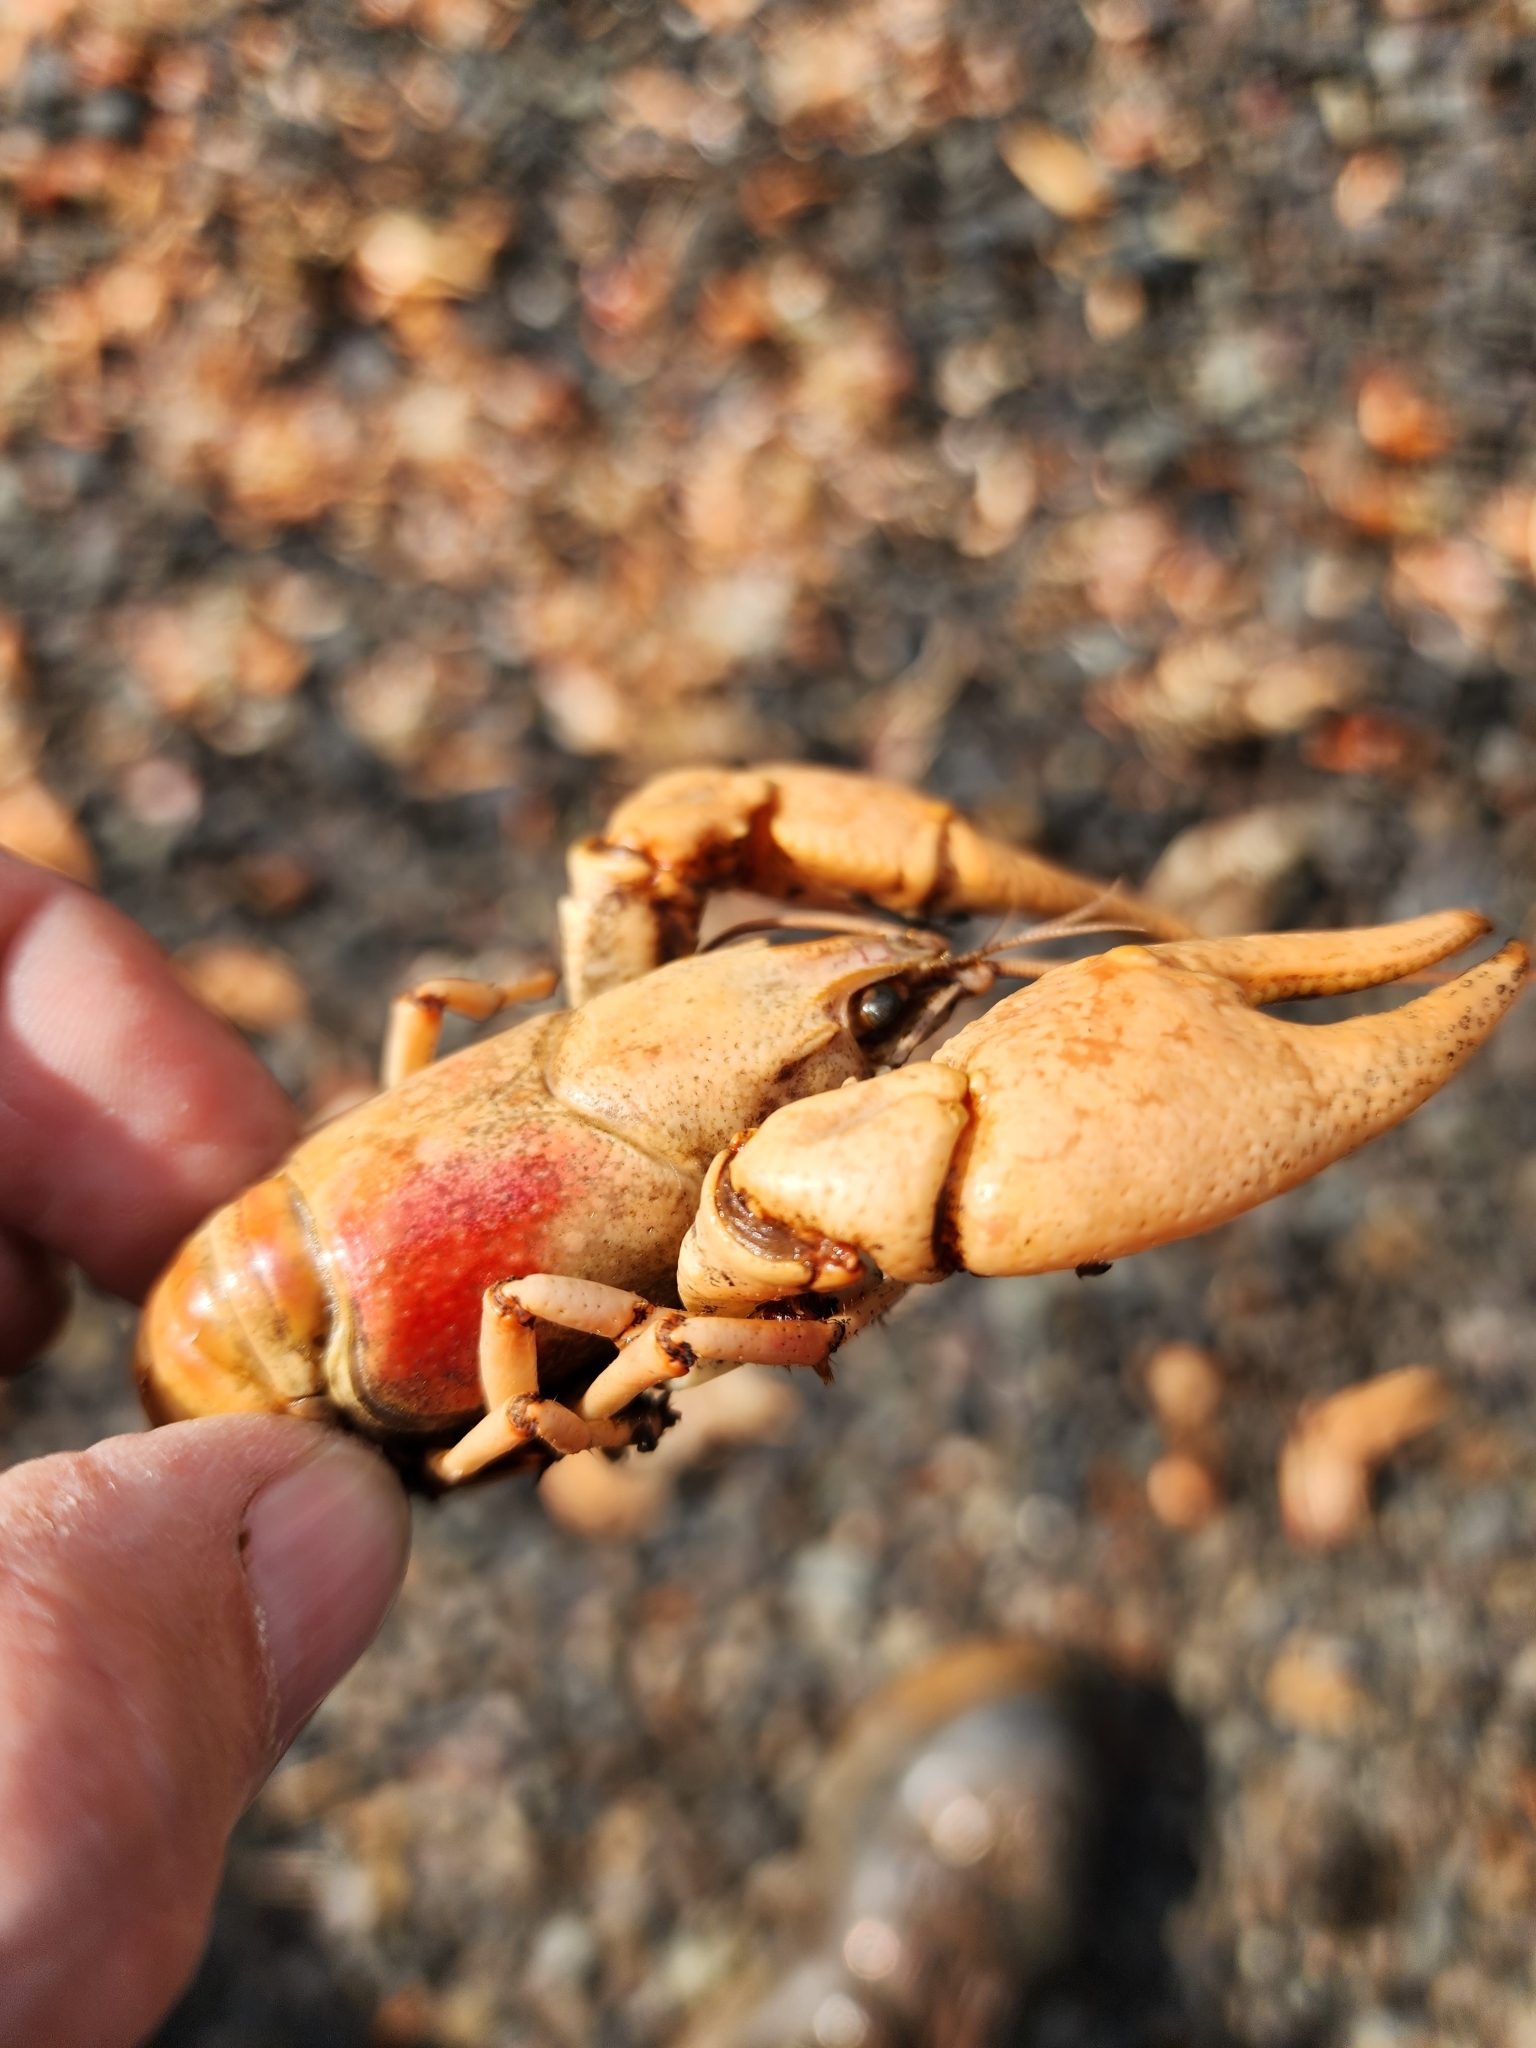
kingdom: Animalia
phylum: Arthropoda
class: Malacostraca
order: Decapoda
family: Cambaridae
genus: Faxonius
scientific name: Faxonius rusticus
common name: Rusty crayfish
